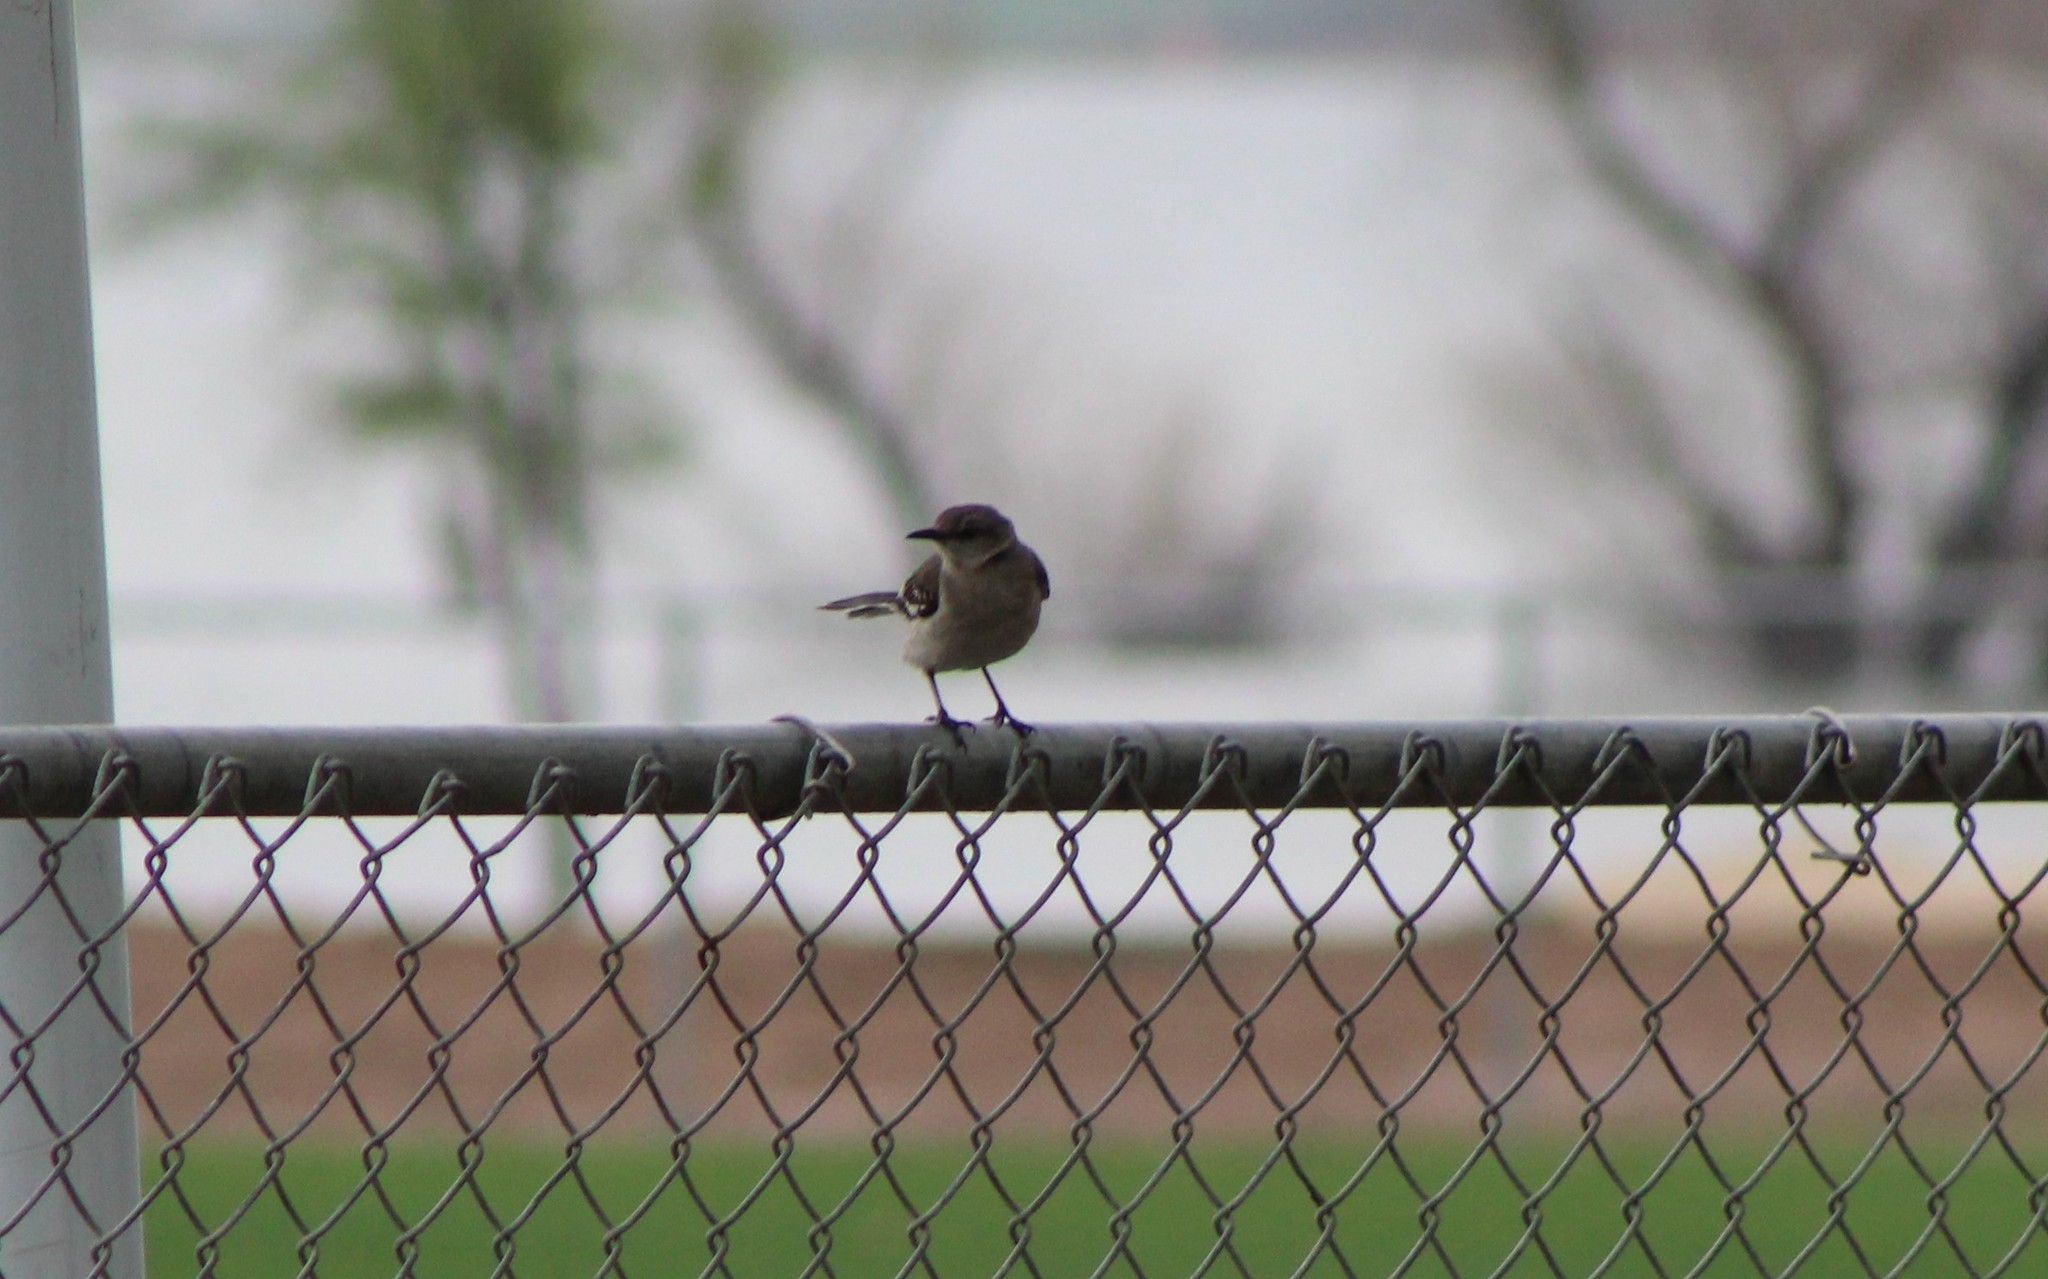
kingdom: Animalia
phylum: Chordata
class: Aves
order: Passeriformes
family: Mimidae
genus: Mimus
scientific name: Mimus polyglottos
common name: Northern mockingbird
